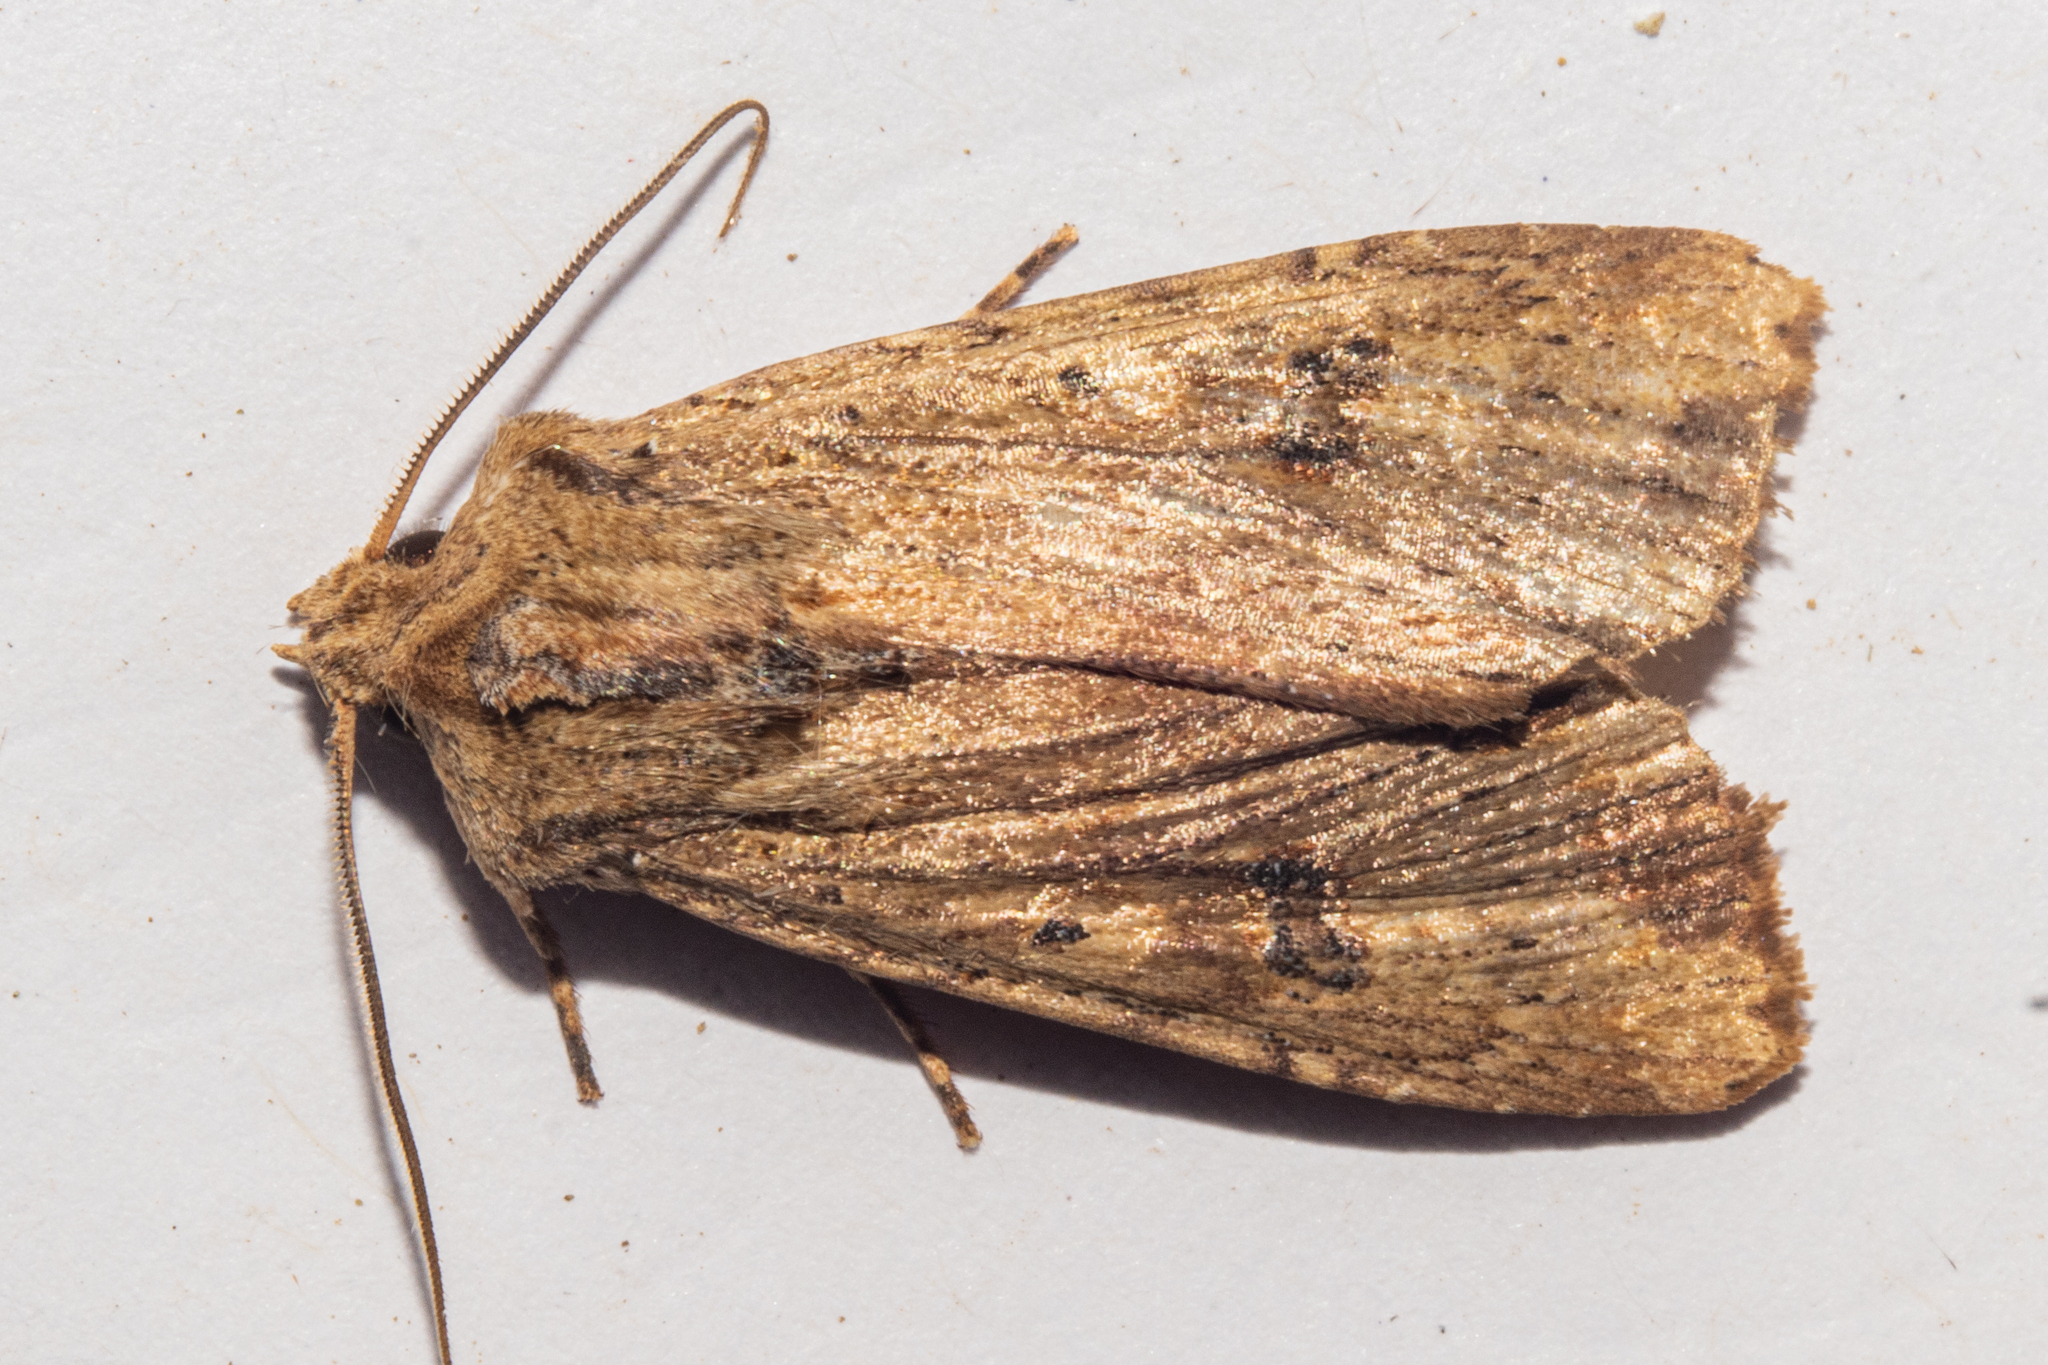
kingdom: Animalia
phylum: Arthropoda
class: Insecta
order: Lepidoptera
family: Noctuidae
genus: Ichneutica
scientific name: Ichneutica
